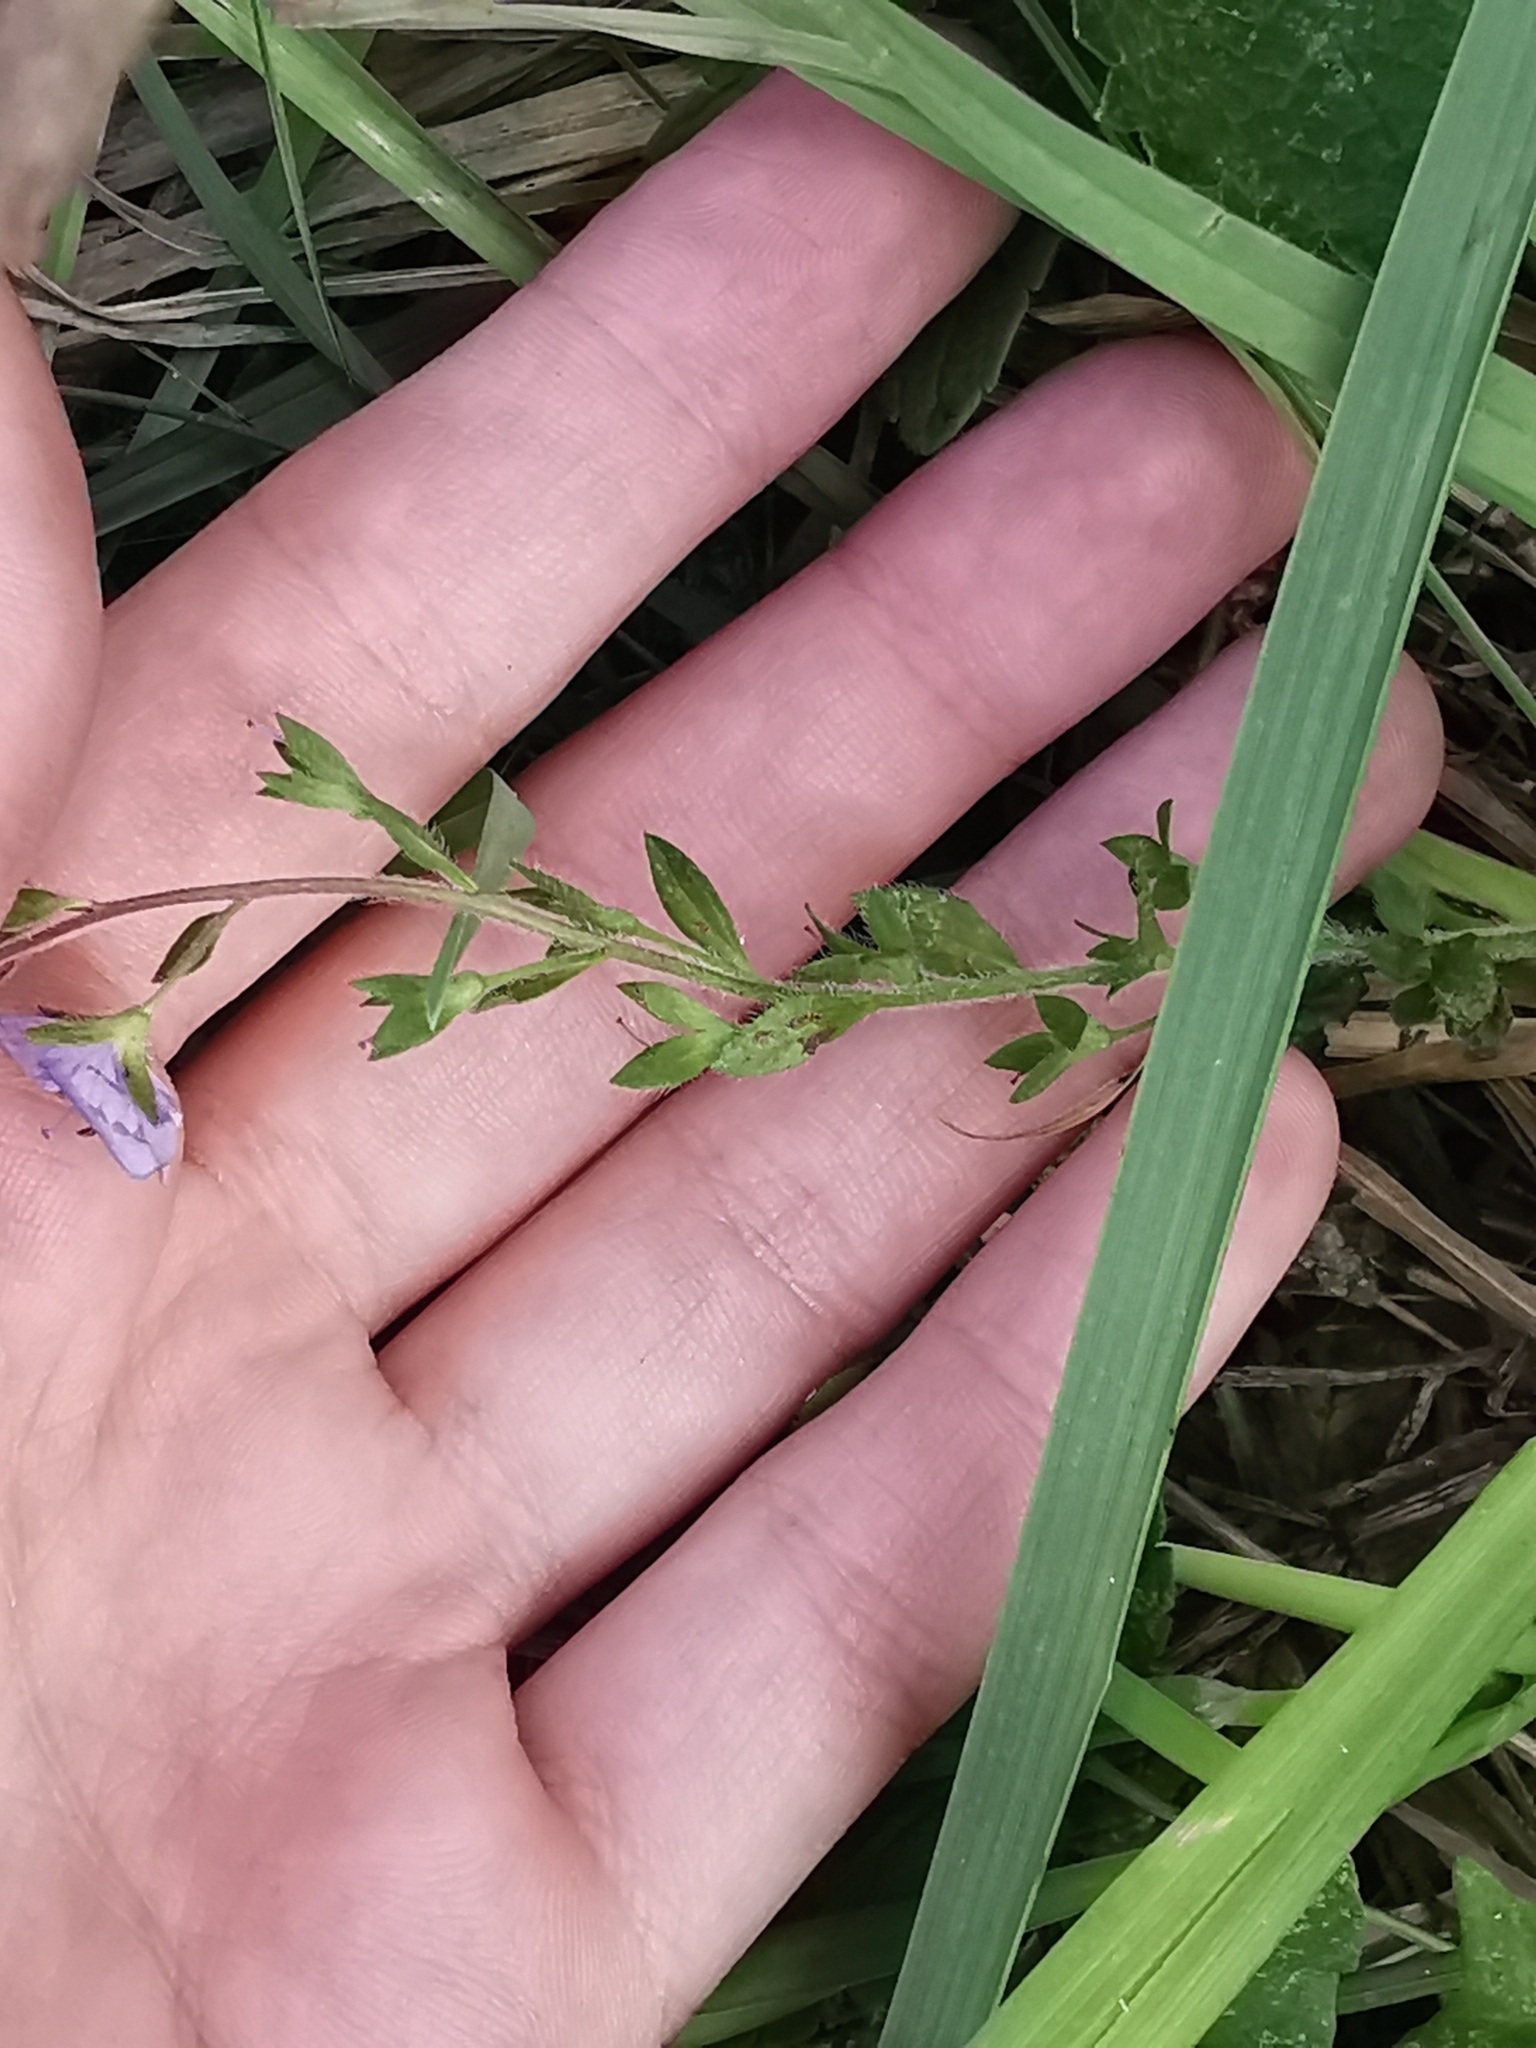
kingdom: Plantae
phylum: Tracheophyta
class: Magnoliopsida
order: Lamiales
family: Plantaginaceae
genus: Veronica
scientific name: Veronica chamaedrys
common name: Germander speedwell
